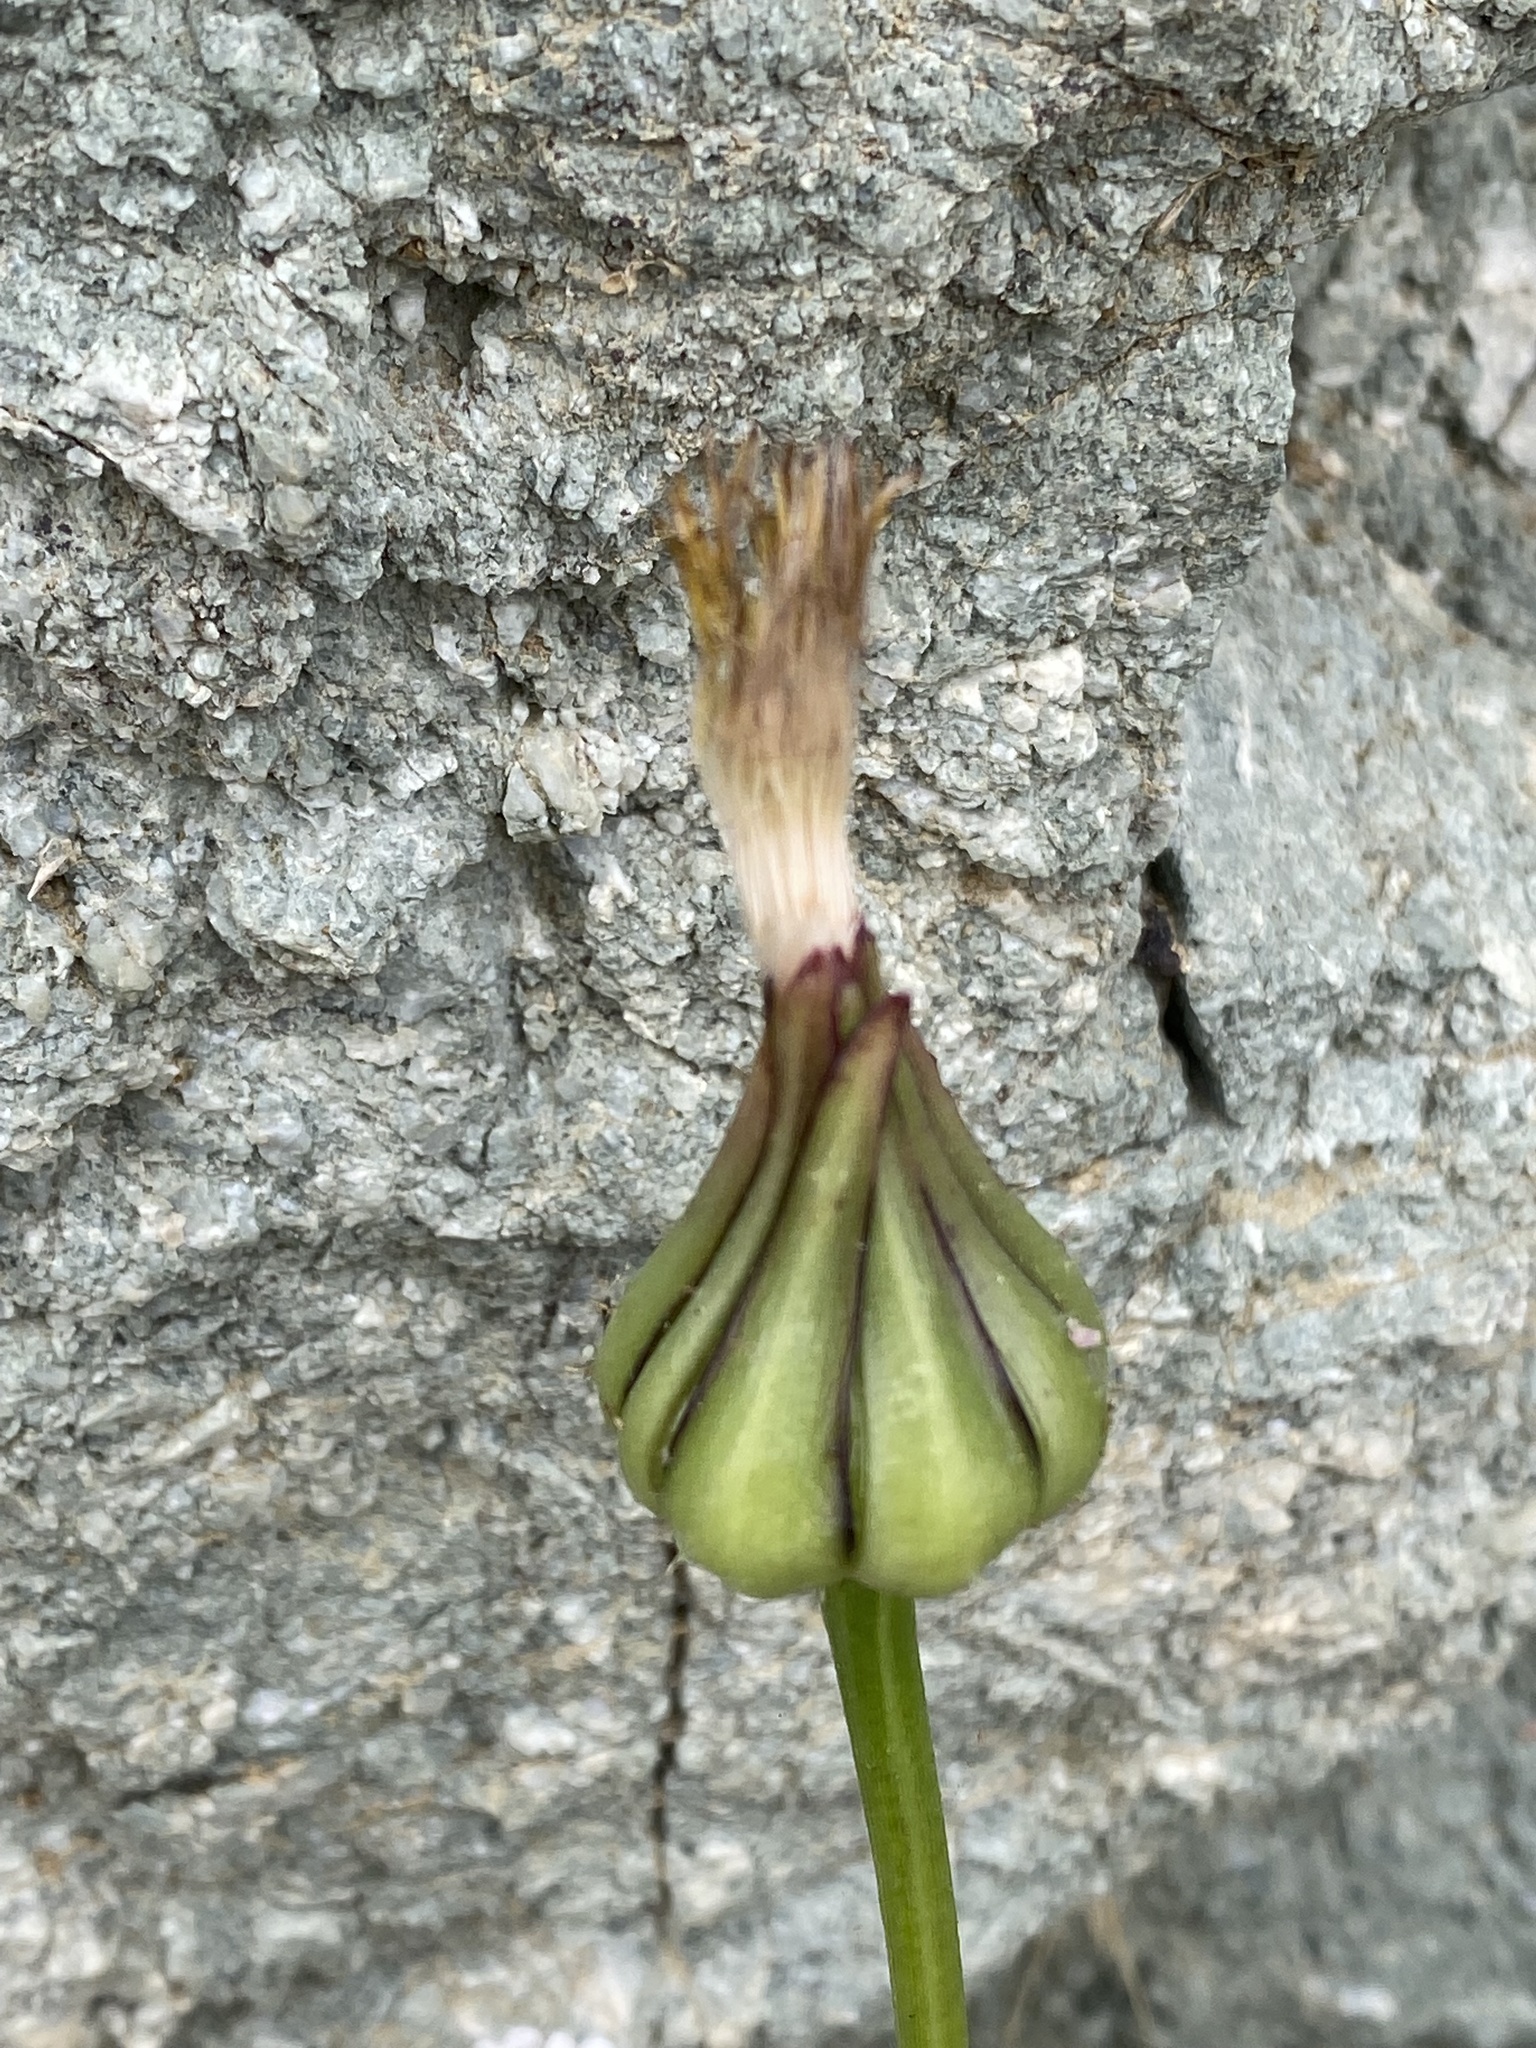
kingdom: Plantae
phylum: Tracheophyta
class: Magnoliopsida
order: Asterales
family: Asteraceae
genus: Urospermum
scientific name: Urospermum picroides
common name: False hawkbit
